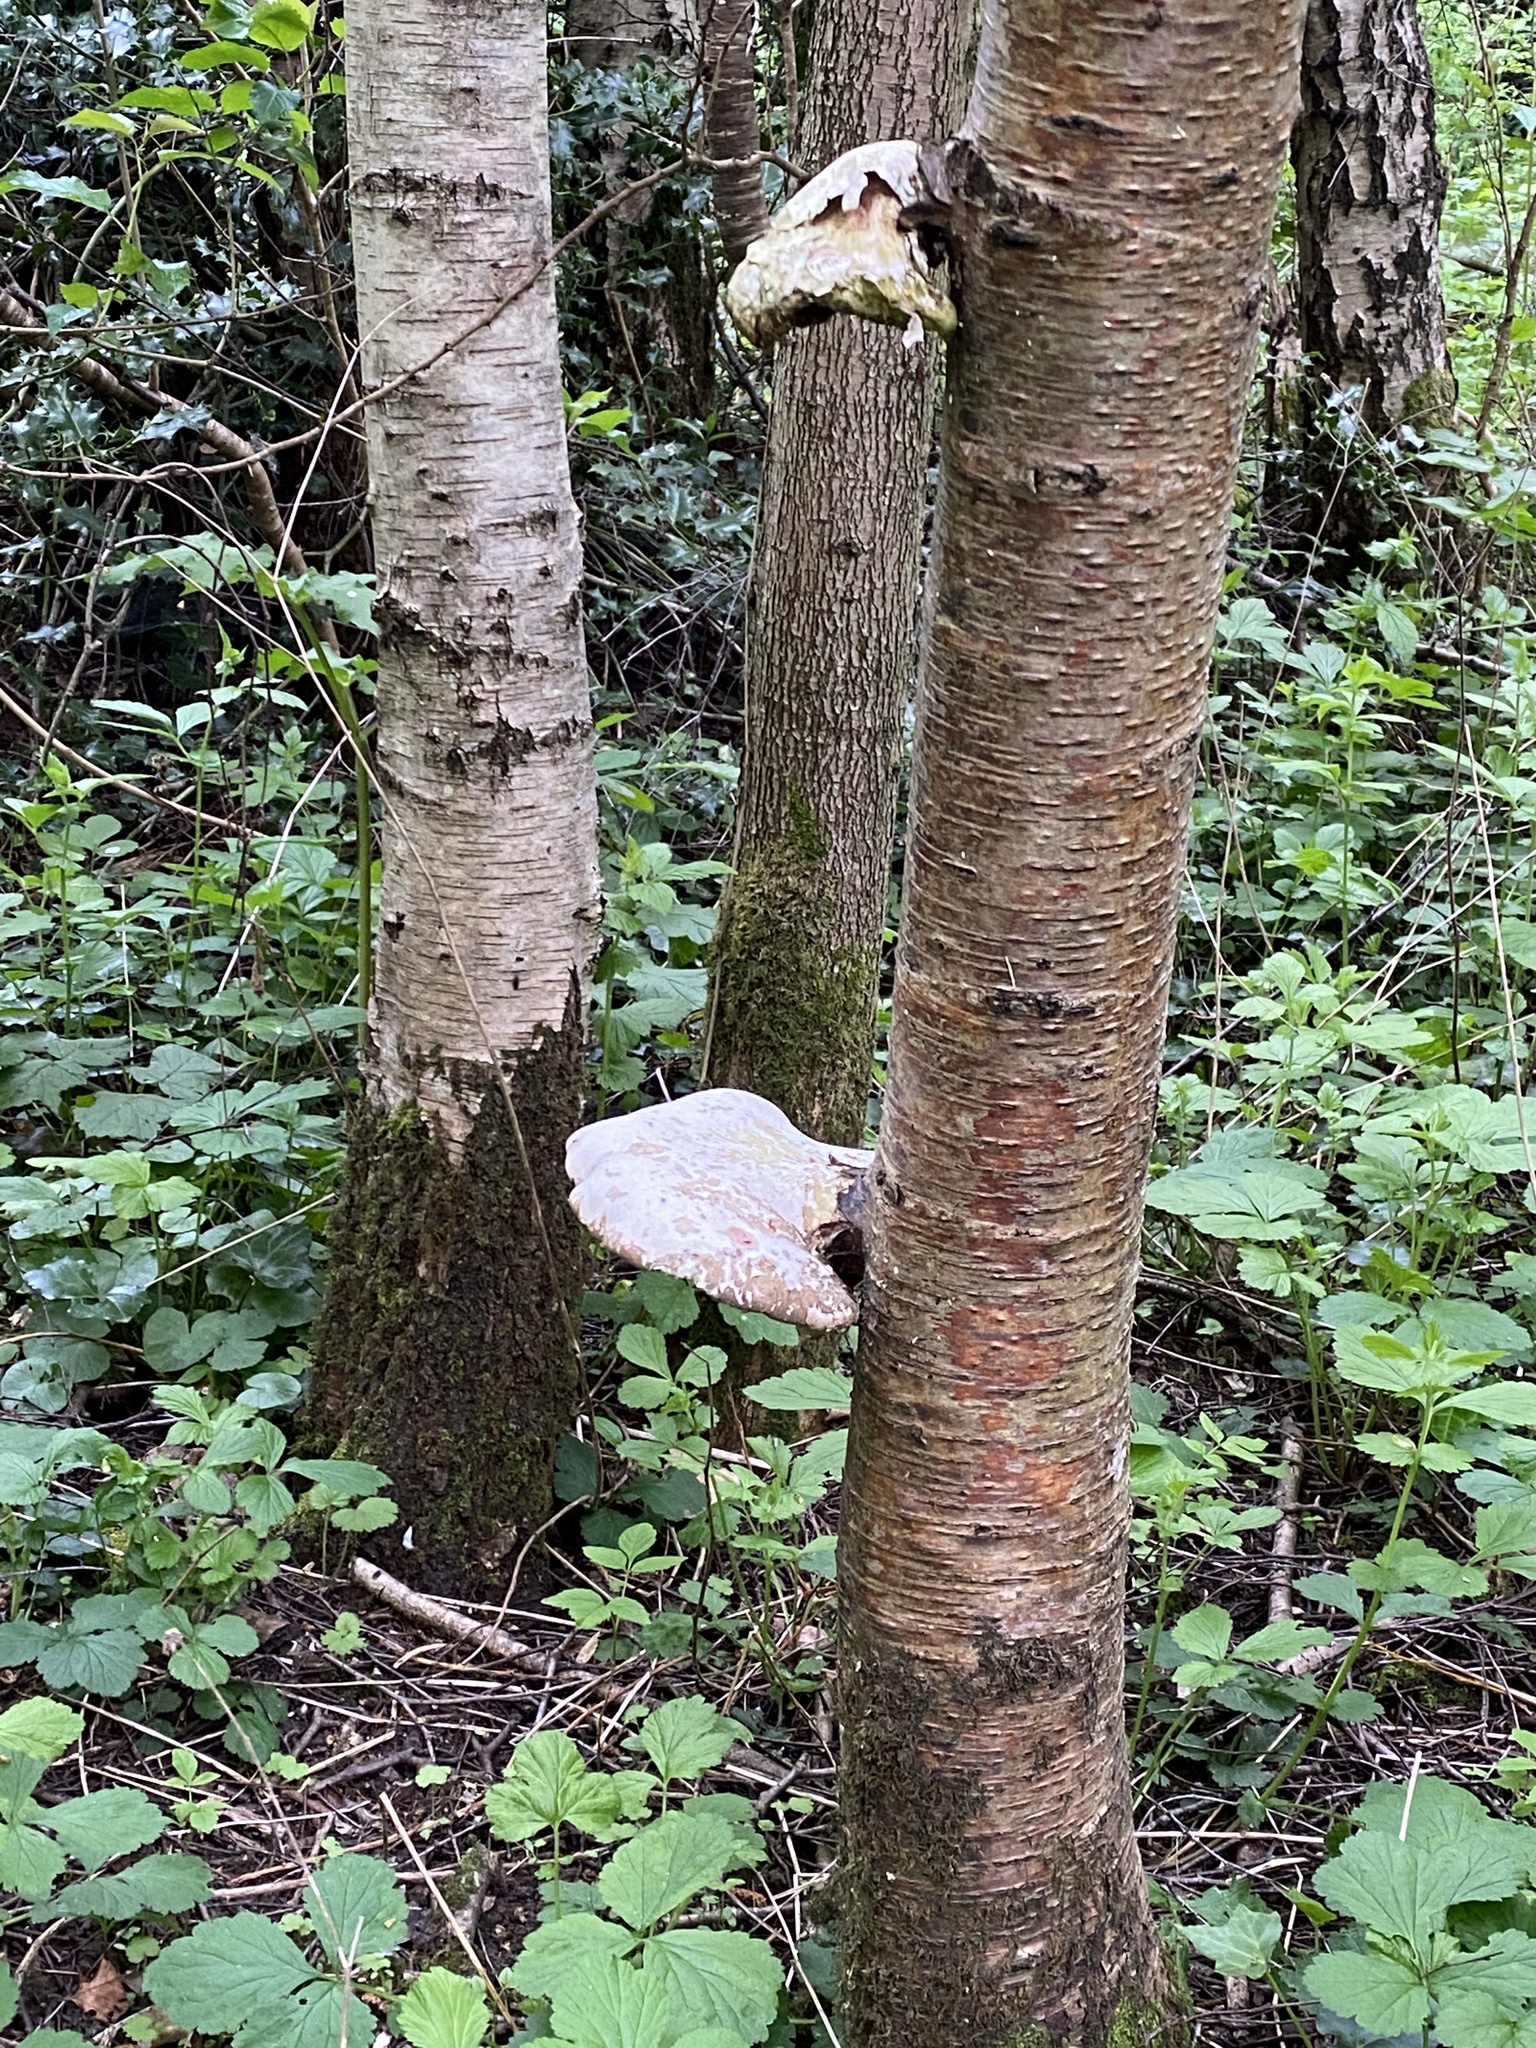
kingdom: Fungi
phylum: Basidiomycota
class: Agaricomycetes
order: Polyporales
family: Fomitopsidaceae
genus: Fomitopsis
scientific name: Fomitopsis betulina
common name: Birch polypore
